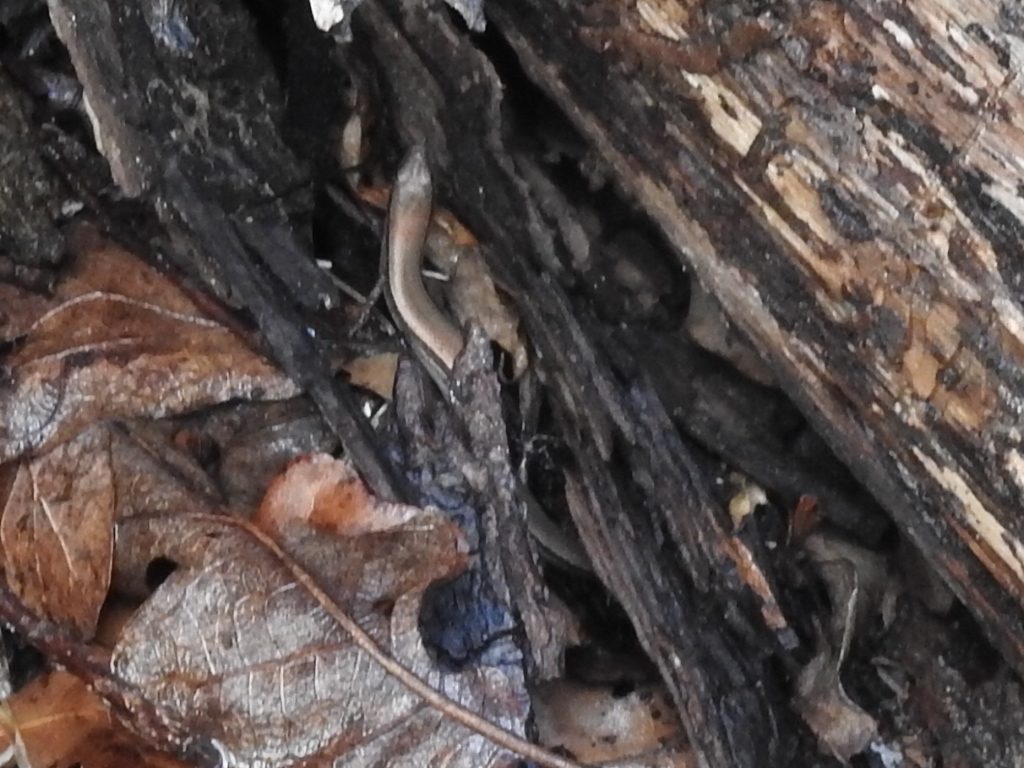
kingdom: Animalia
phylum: Chordata
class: Squamata
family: Scincidae
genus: Scincella
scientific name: Scincella lateralis
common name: Ground skink
